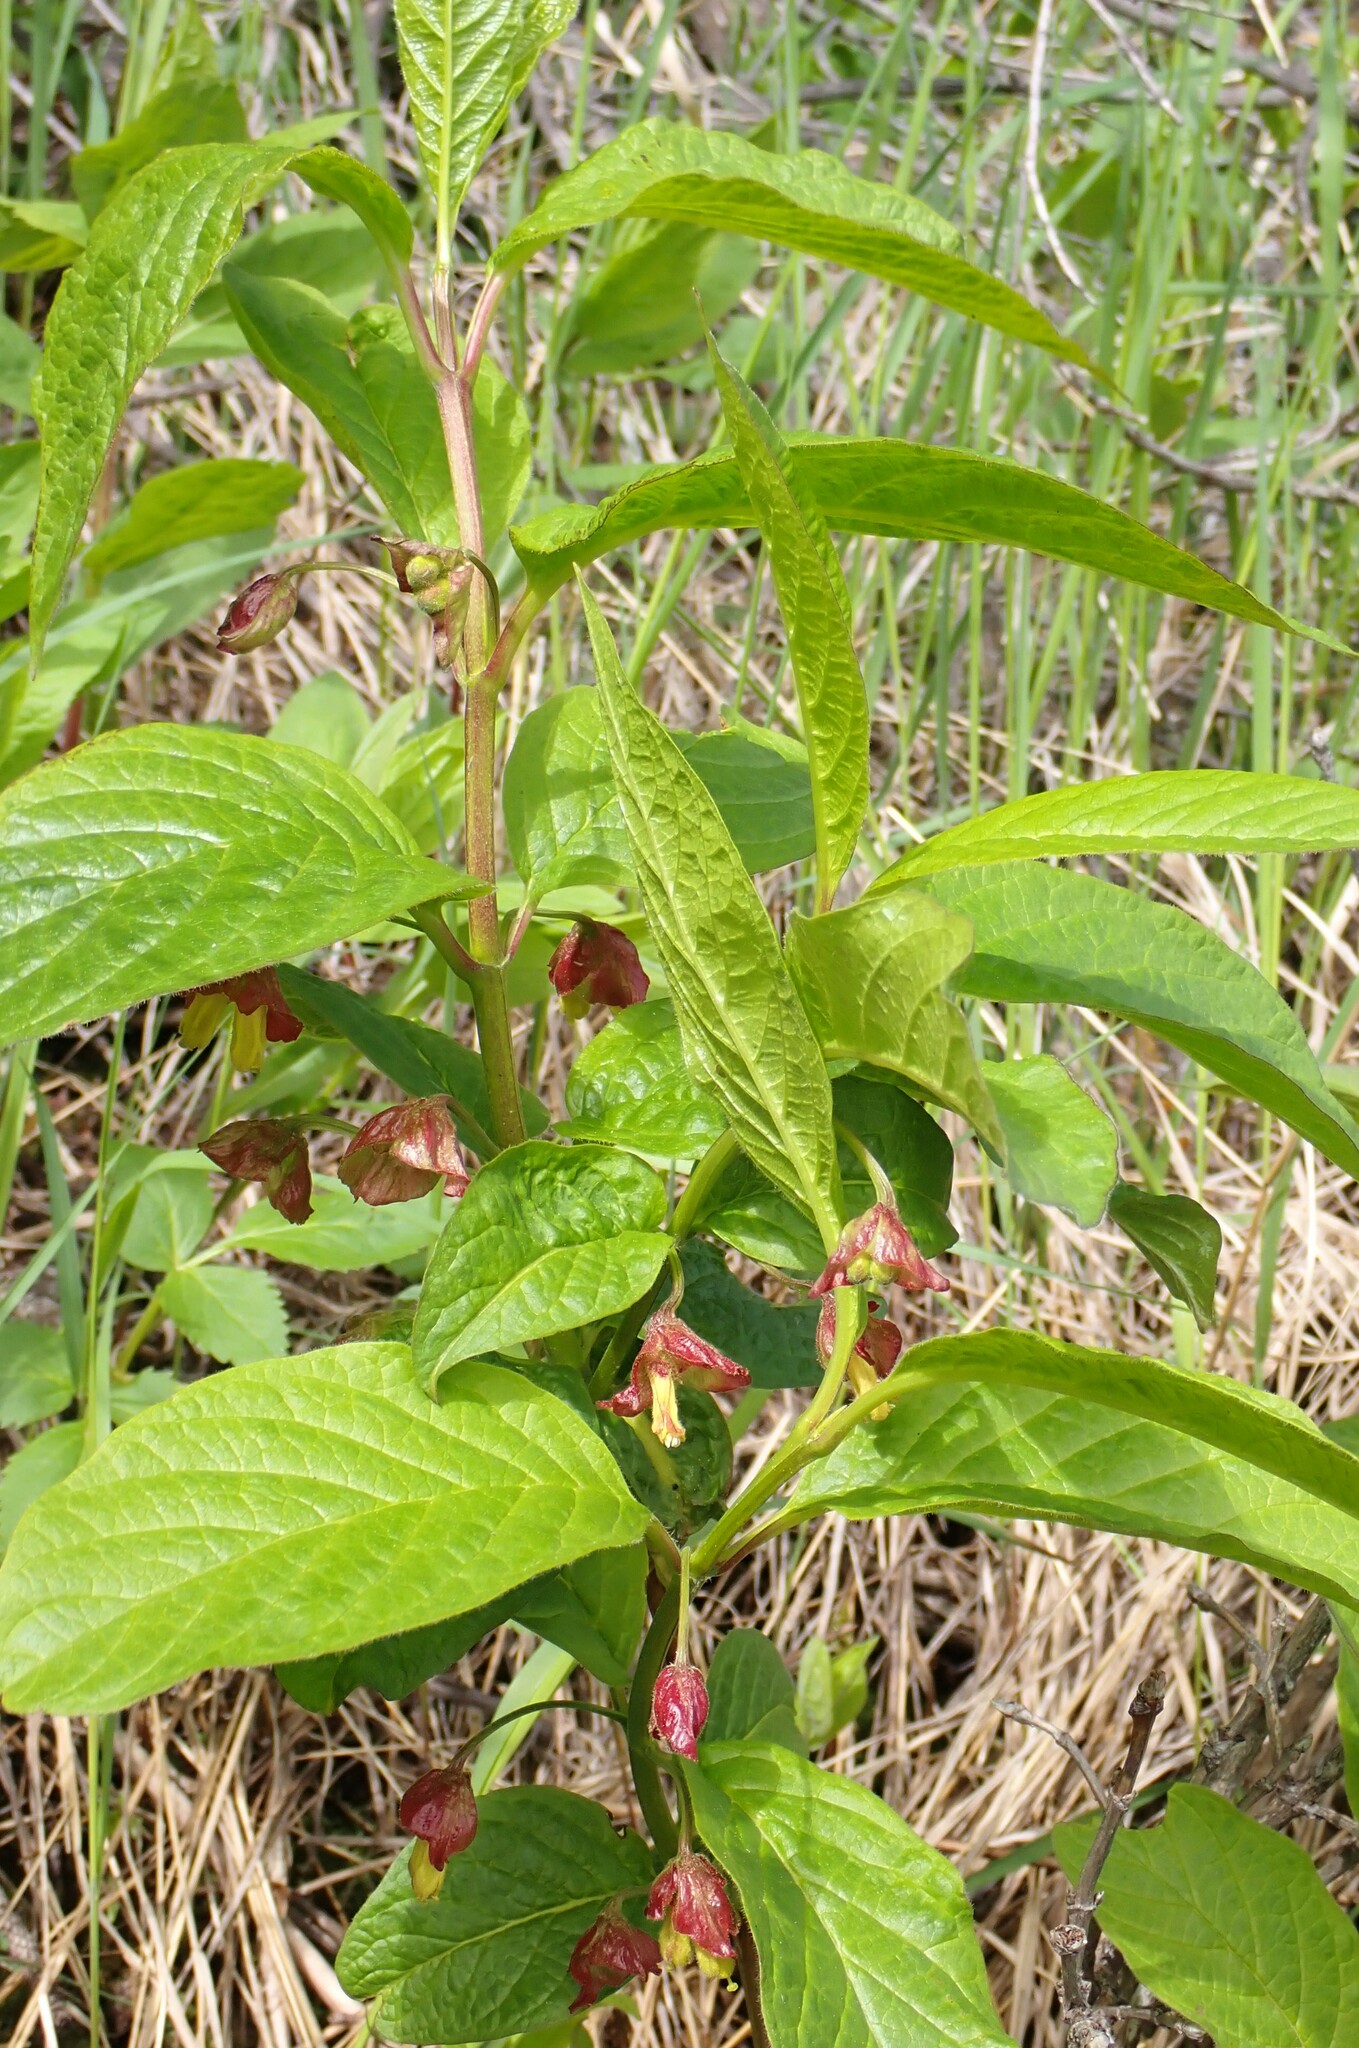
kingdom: Plantae
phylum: Tracheophyta
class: Magnoliopsida
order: Dipsacales
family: Caprifoliaceae
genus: Lonicera
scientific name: Lonicera involucrata
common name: Californian honeysuckle
